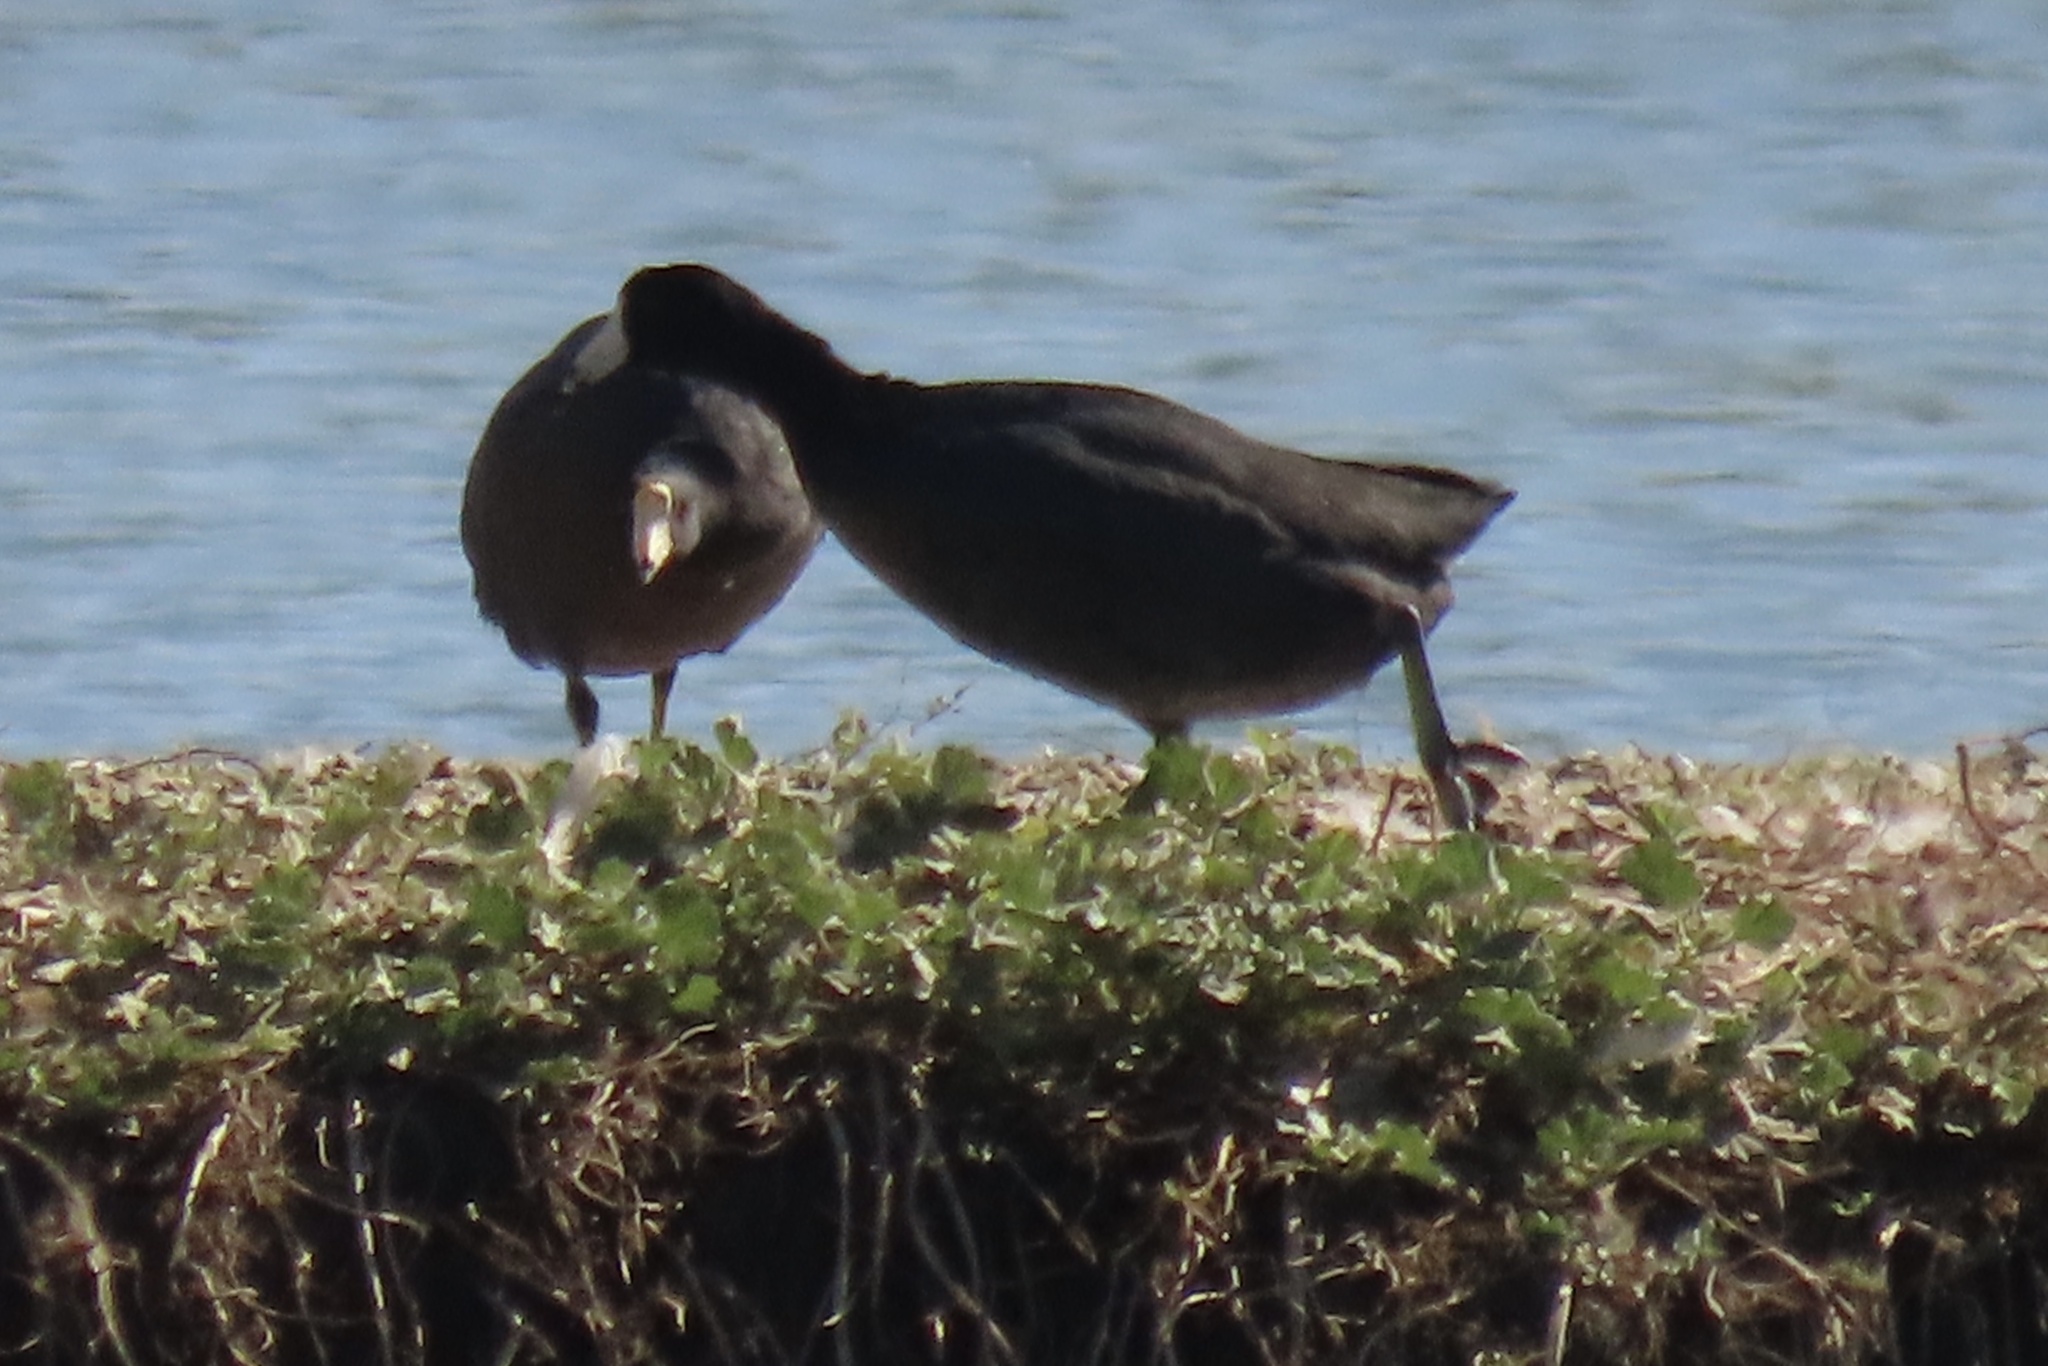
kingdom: Animalia
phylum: Chordata
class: Aves
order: Gruiformes
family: Rallidae
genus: Fulica
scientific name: Fulica americana
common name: American coot
